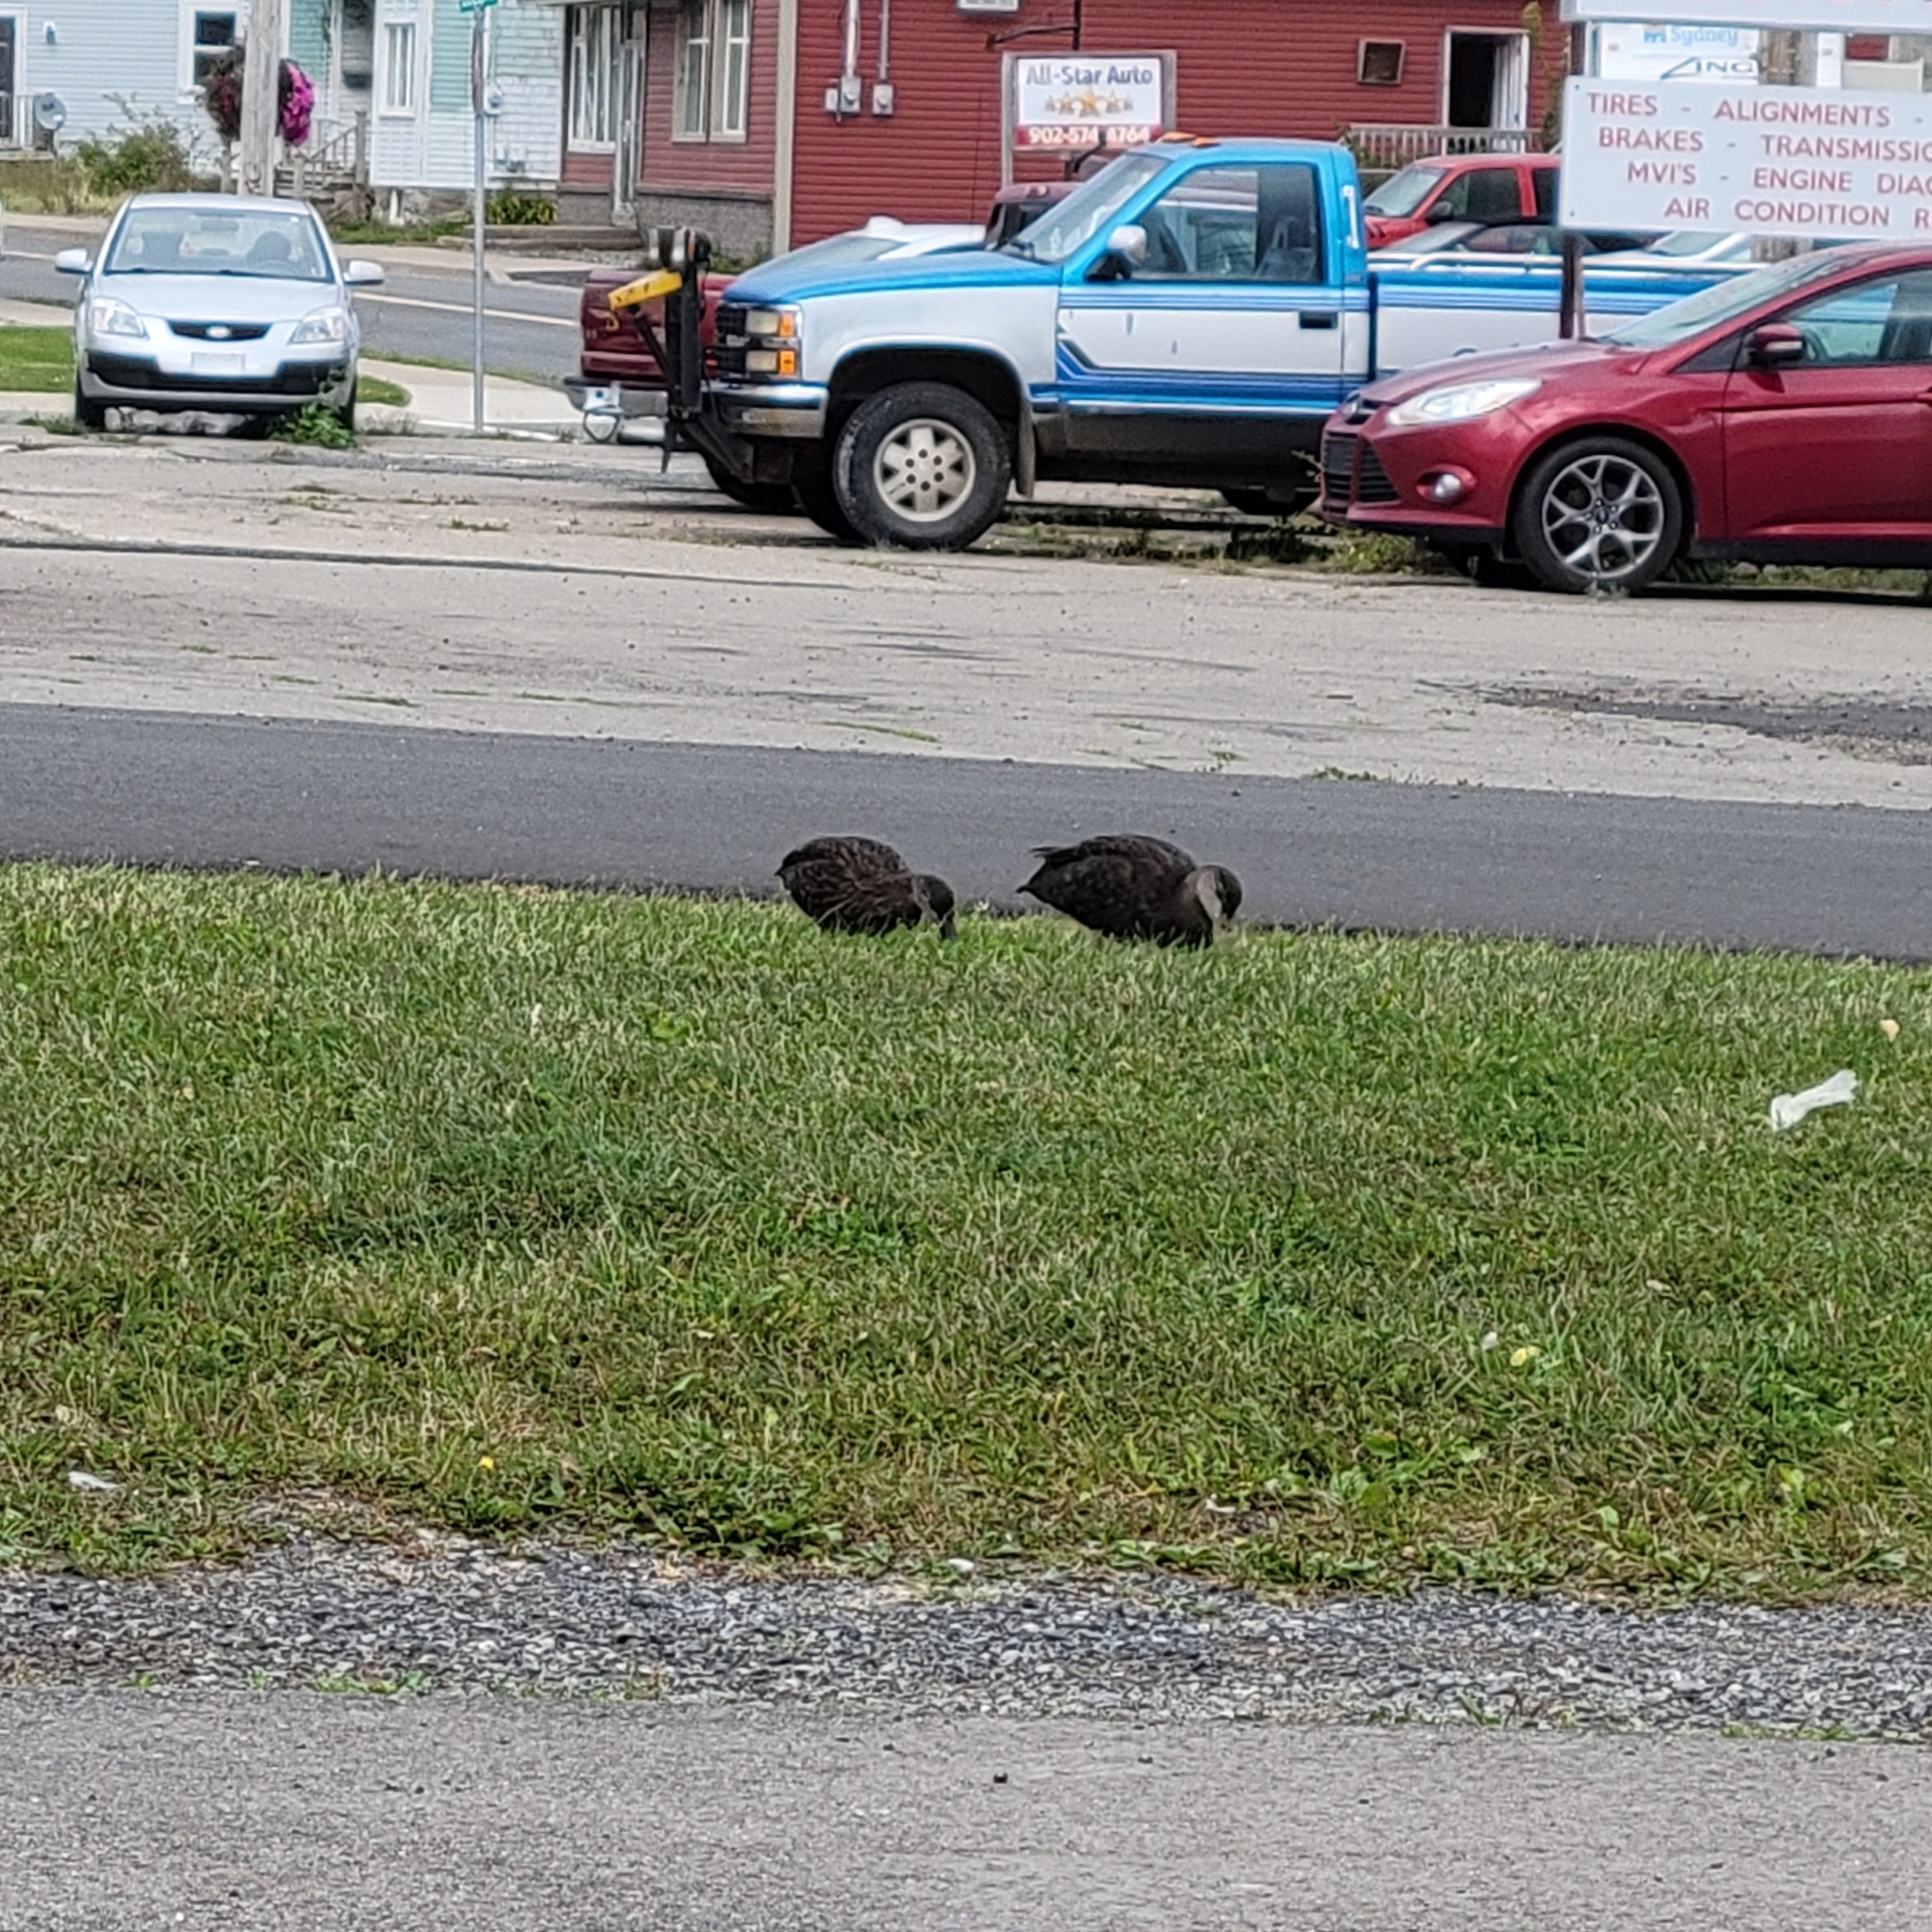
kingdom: Animalia
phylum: Chordata
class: Aves
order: Anseriformes
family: Anatidae
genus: Anas
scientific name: Anas rubripes
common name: American black duck
